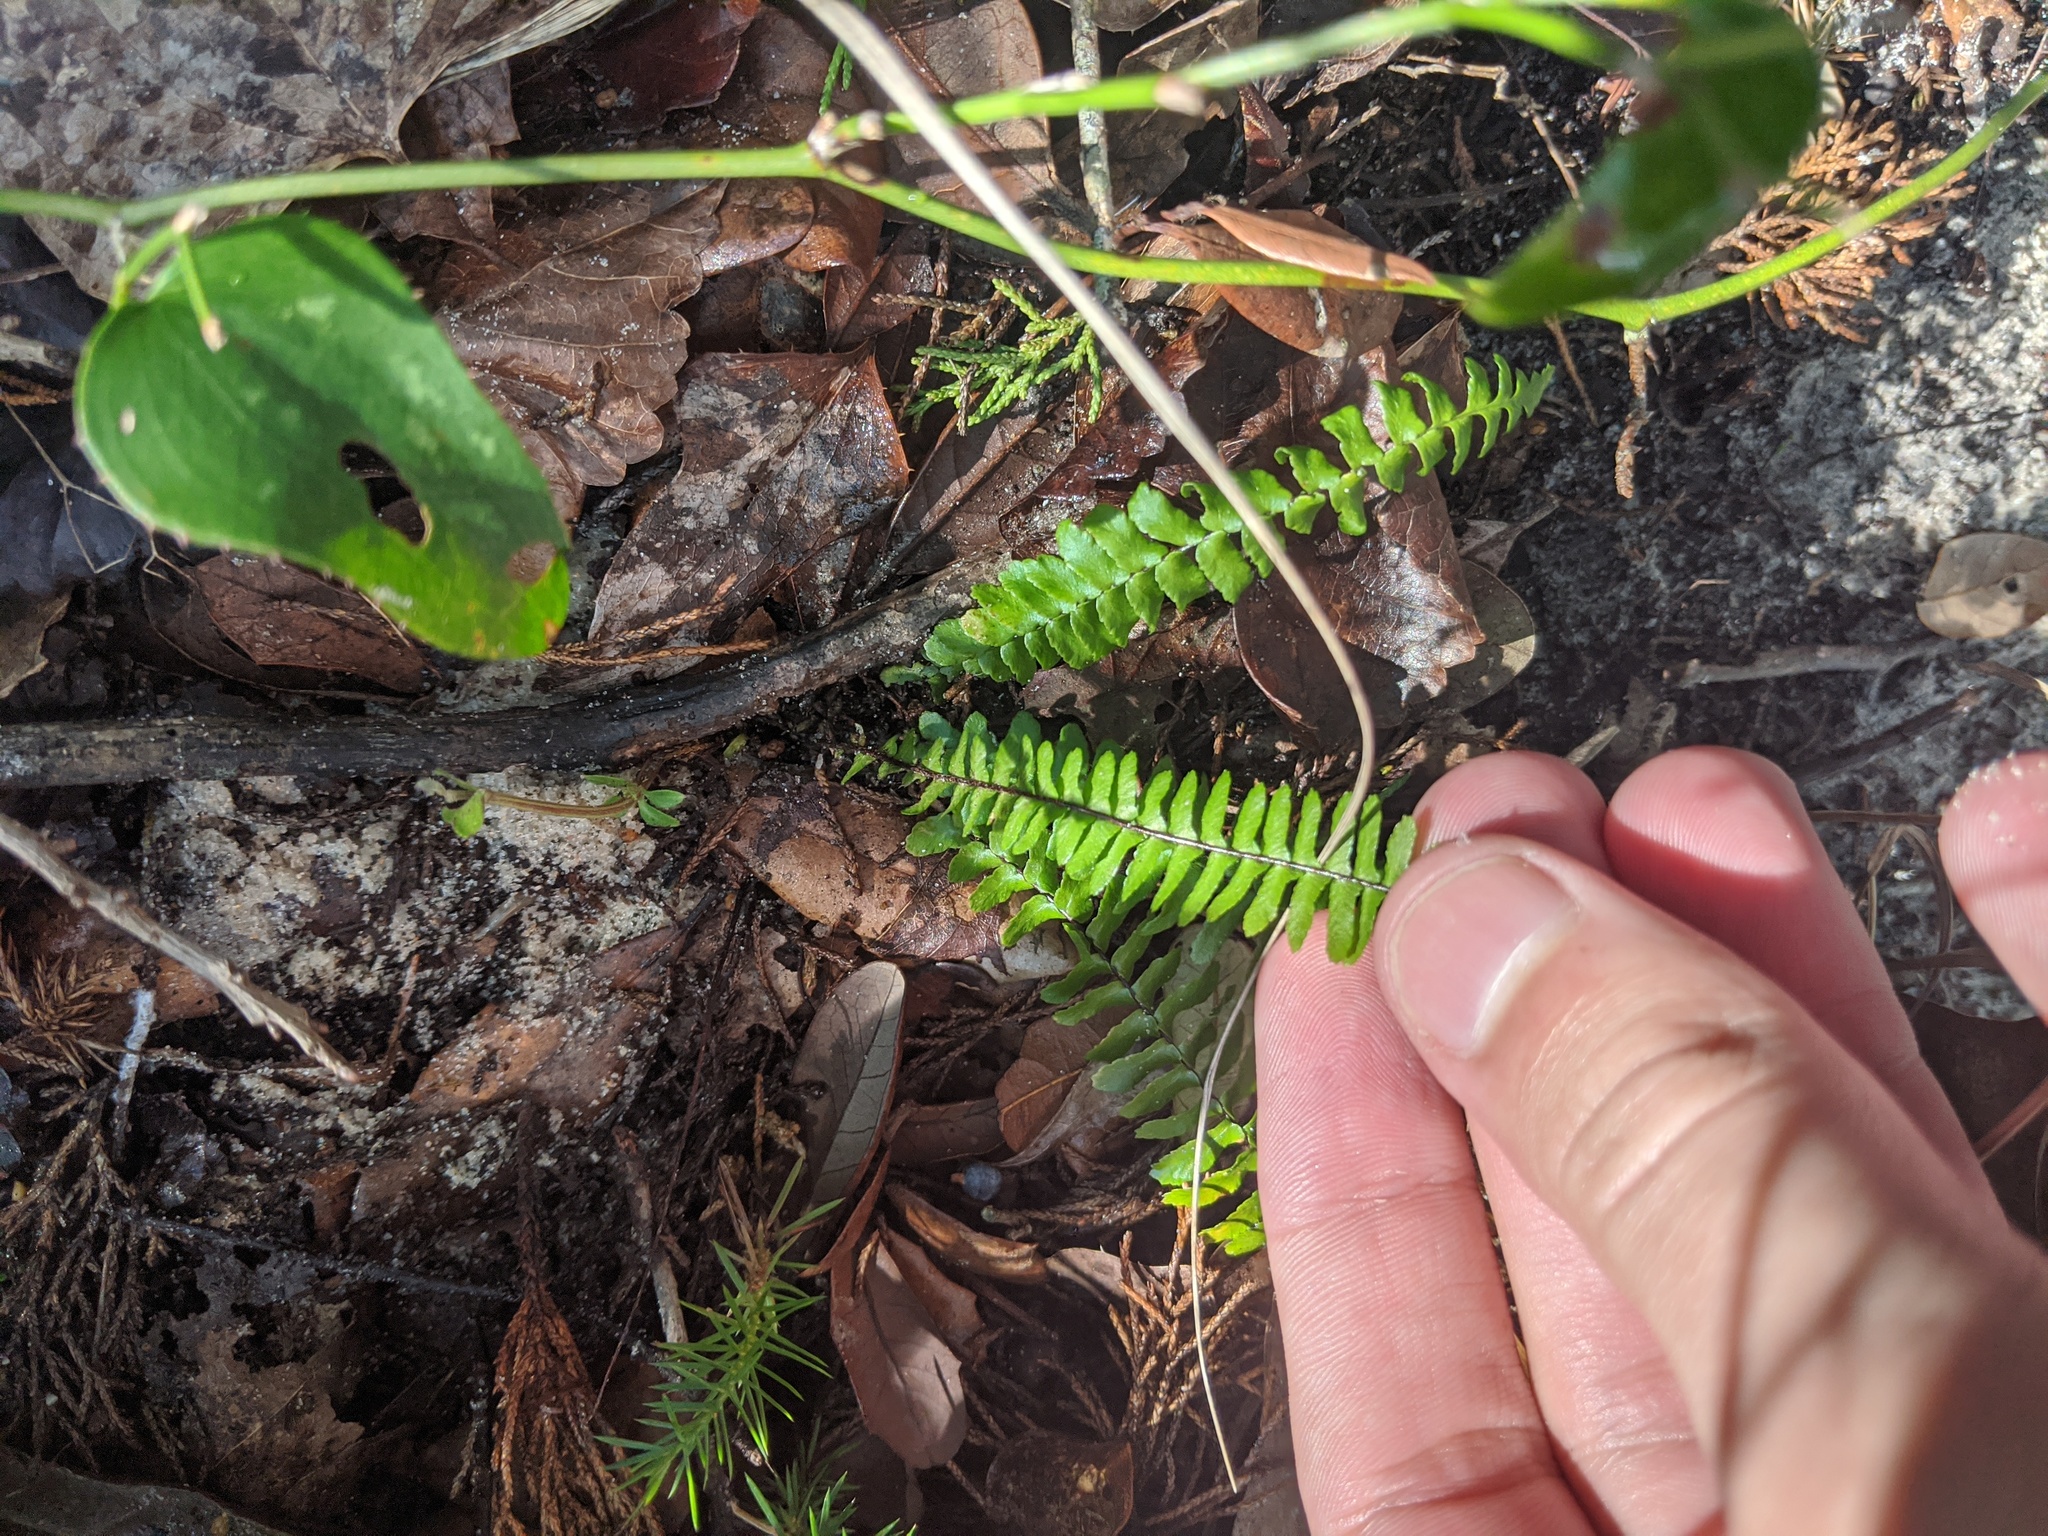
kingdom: Plantae
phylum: Tracheophyta
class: Polypodiopsida
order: Polypodiales
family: Aspleniaceae
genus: Asplenium
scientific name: Asplenium platyneuron
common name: Ebony spleenwort
